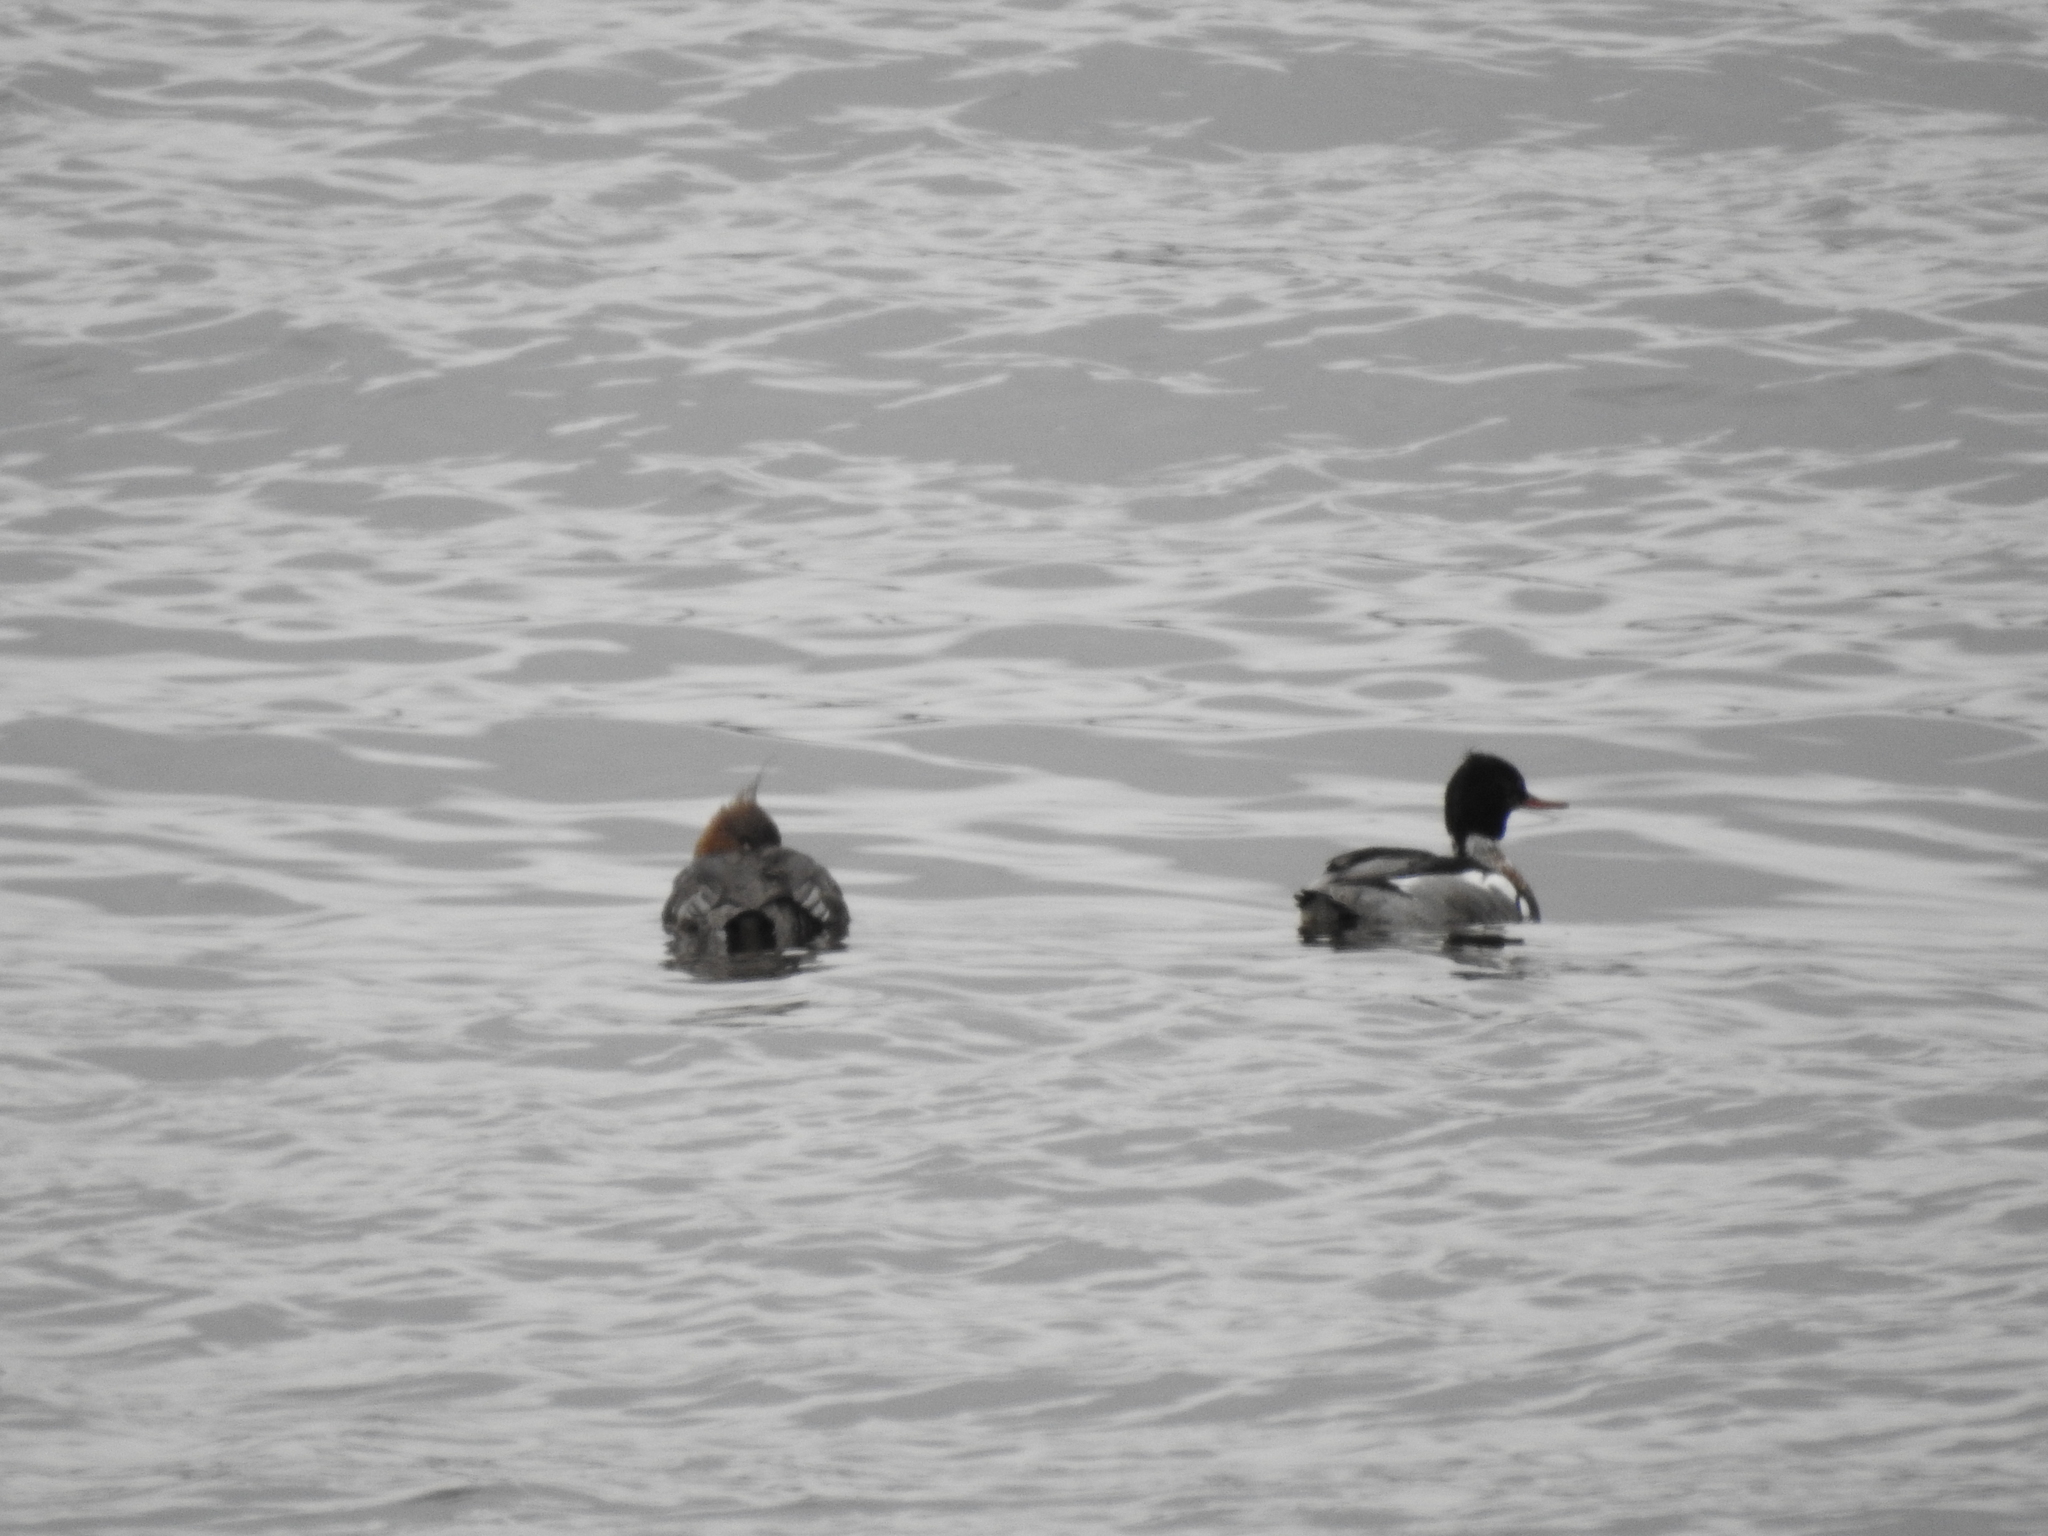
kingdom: Animalia
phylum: Chordata
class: Aves
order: Anseriformes
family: Anatidae
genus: Mergus
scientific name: Mergus serrator
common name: Red-breasted merganser
